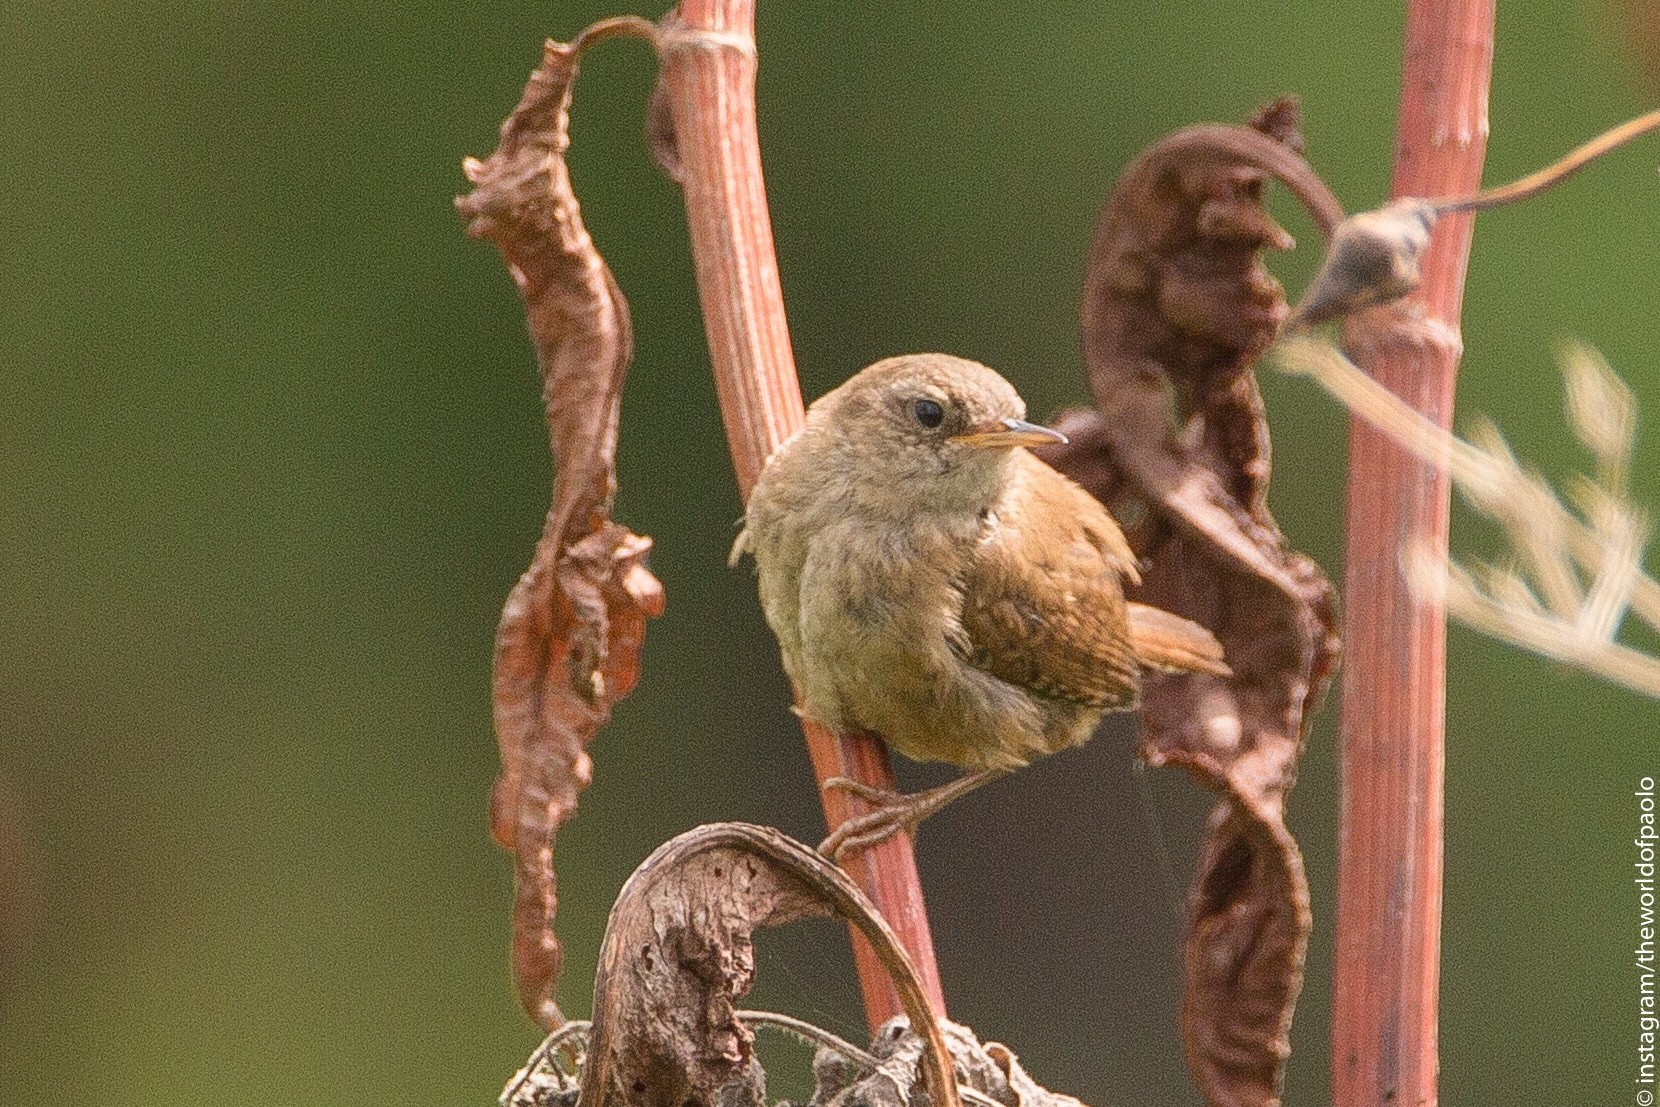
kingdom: Animalia
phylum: Chordata
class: Aves
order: Passeriformes
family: Troglodytidae
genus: Troglodytes
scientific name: Troglodytes troglodytes
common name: Eurasian wren
